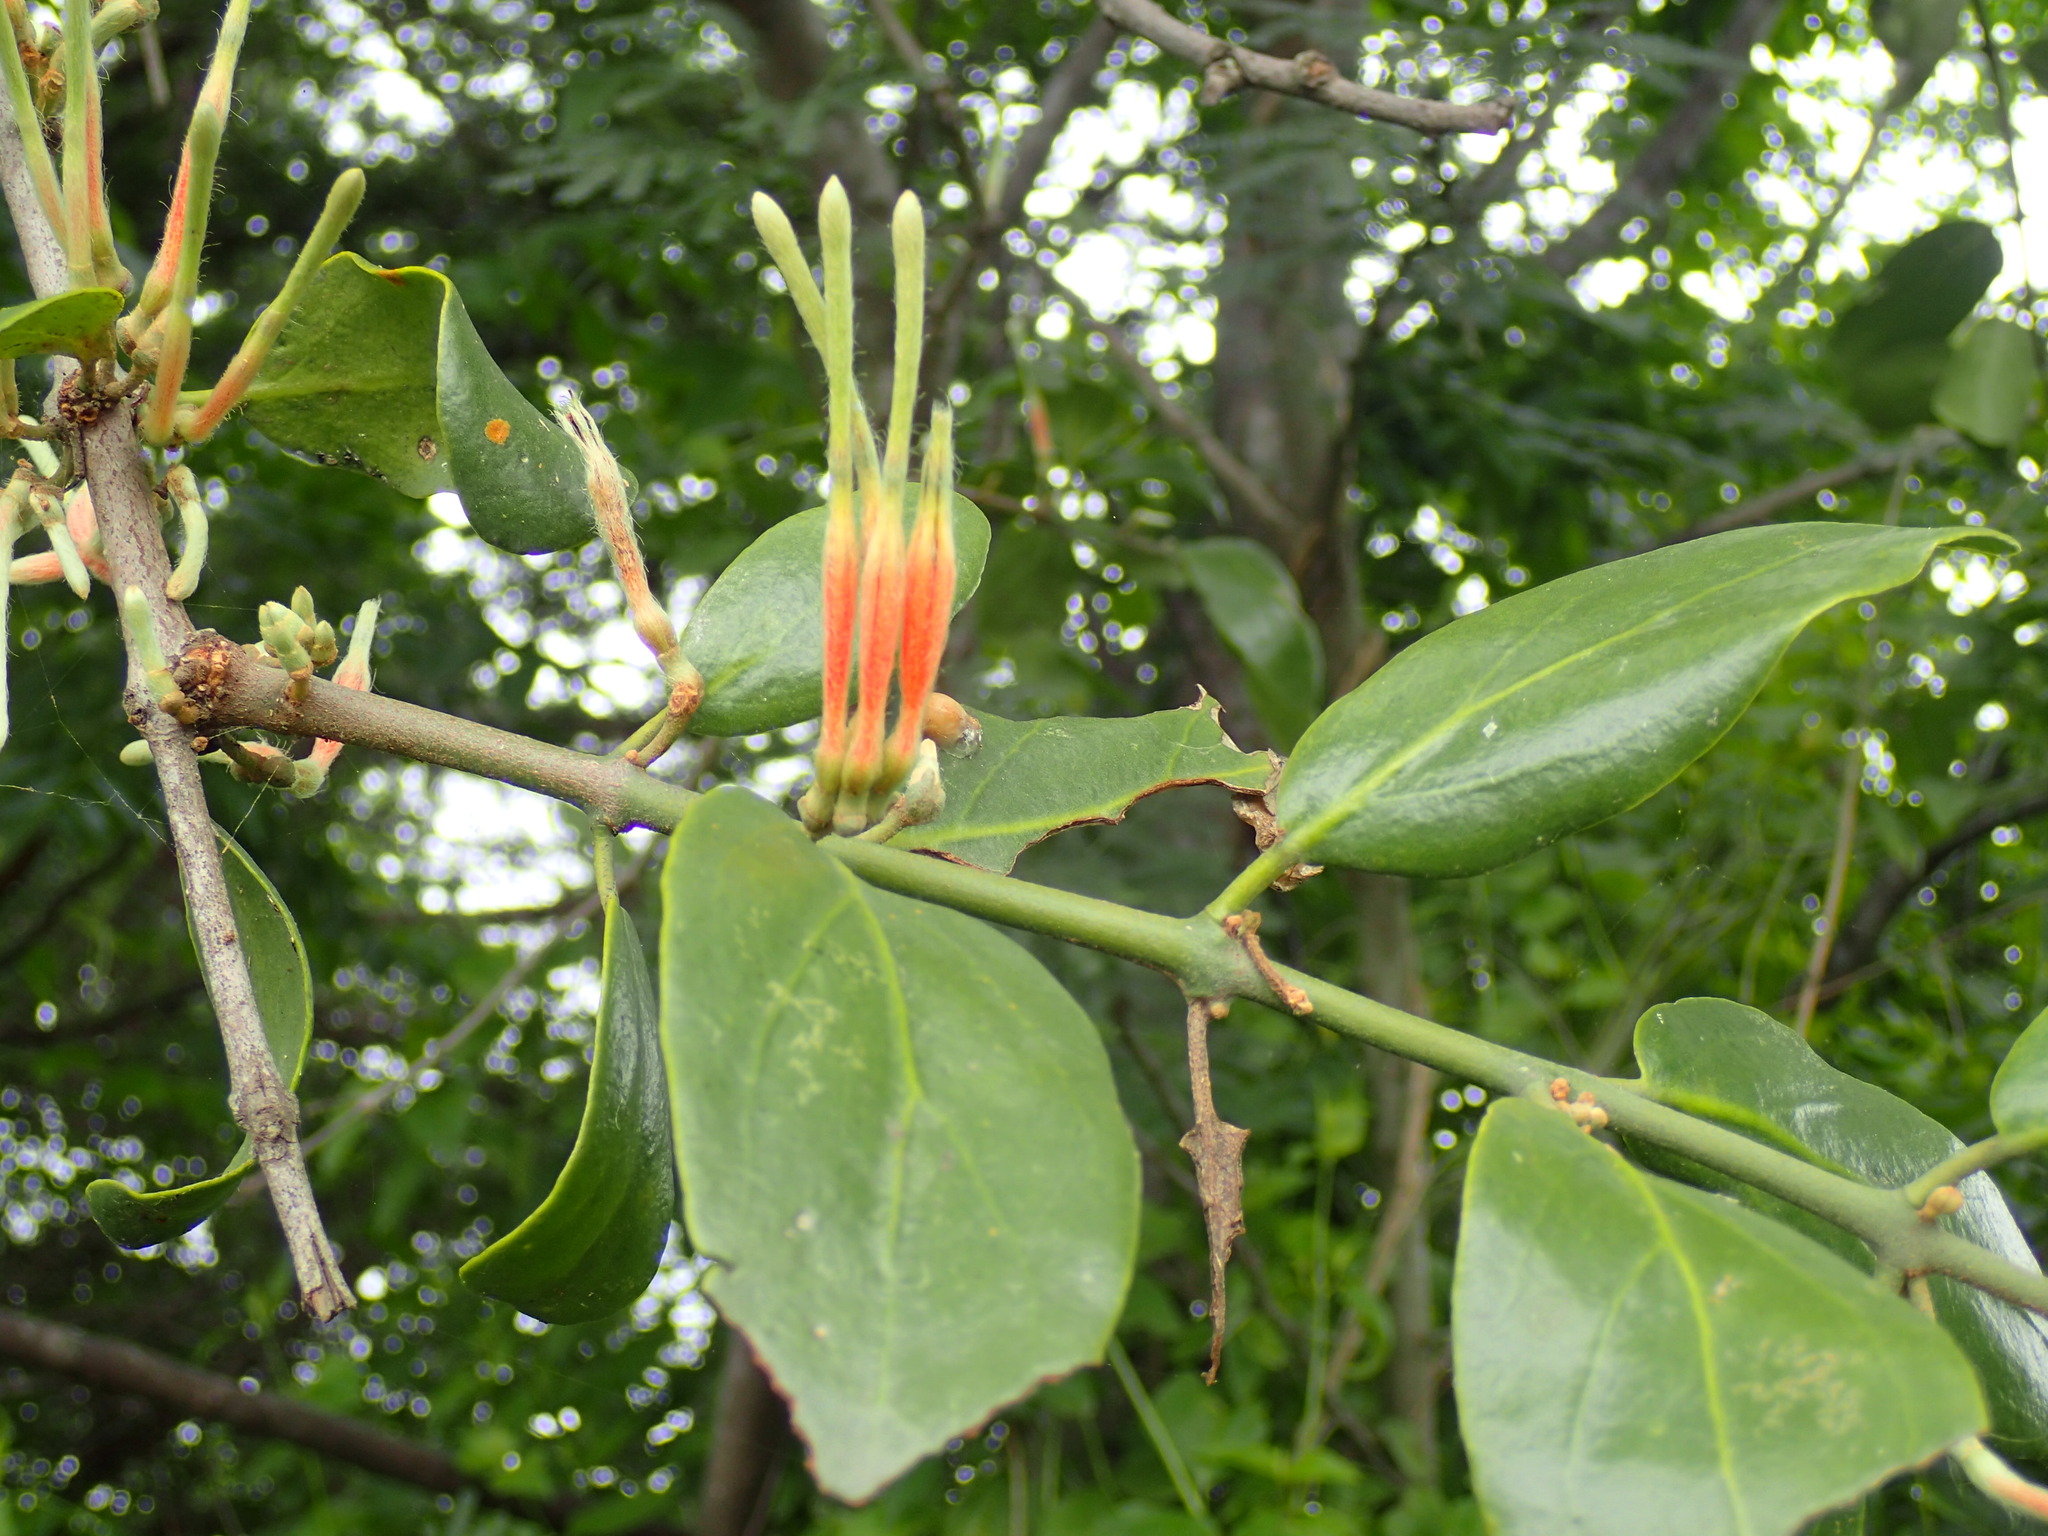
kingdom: Plantae
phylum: Tracheophyta
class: Magnoliopsida
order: Santalales
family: Loranthaceae
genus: Erianthemum
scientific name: Erianthemum dregei
